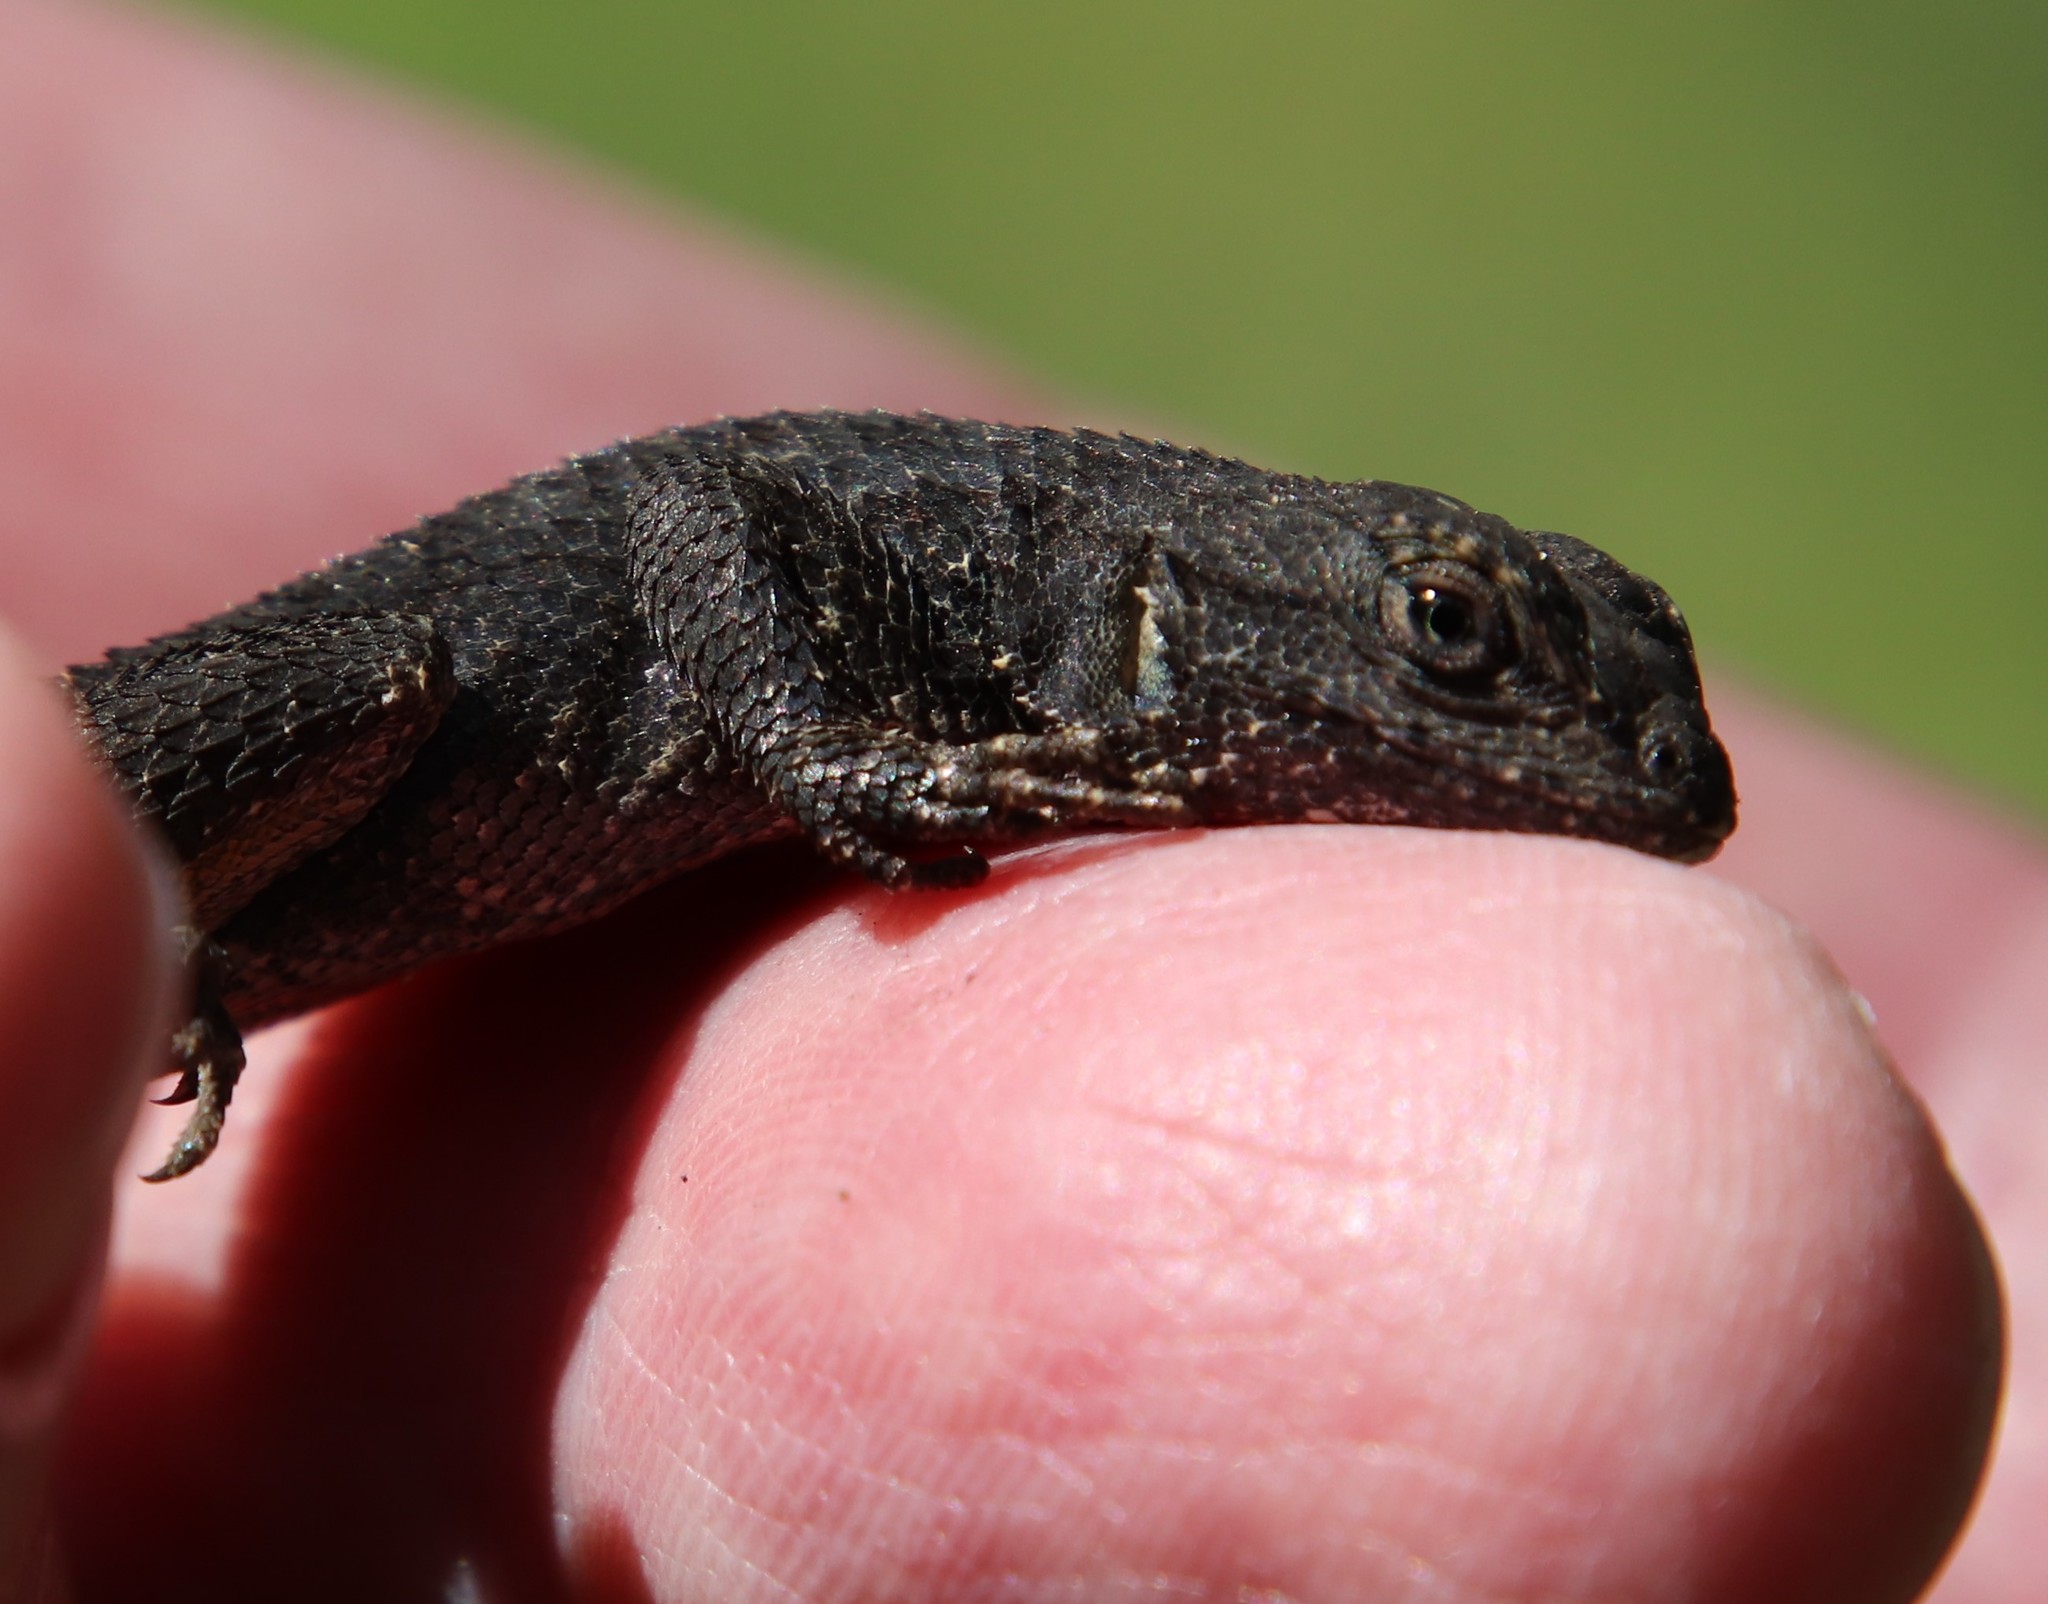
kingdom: Animalia
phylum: Chordata
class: Squamata
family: Phrynosomatidae
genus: Sceloporus
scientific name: Sceloporus occidentalis
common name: Western fence lizard
